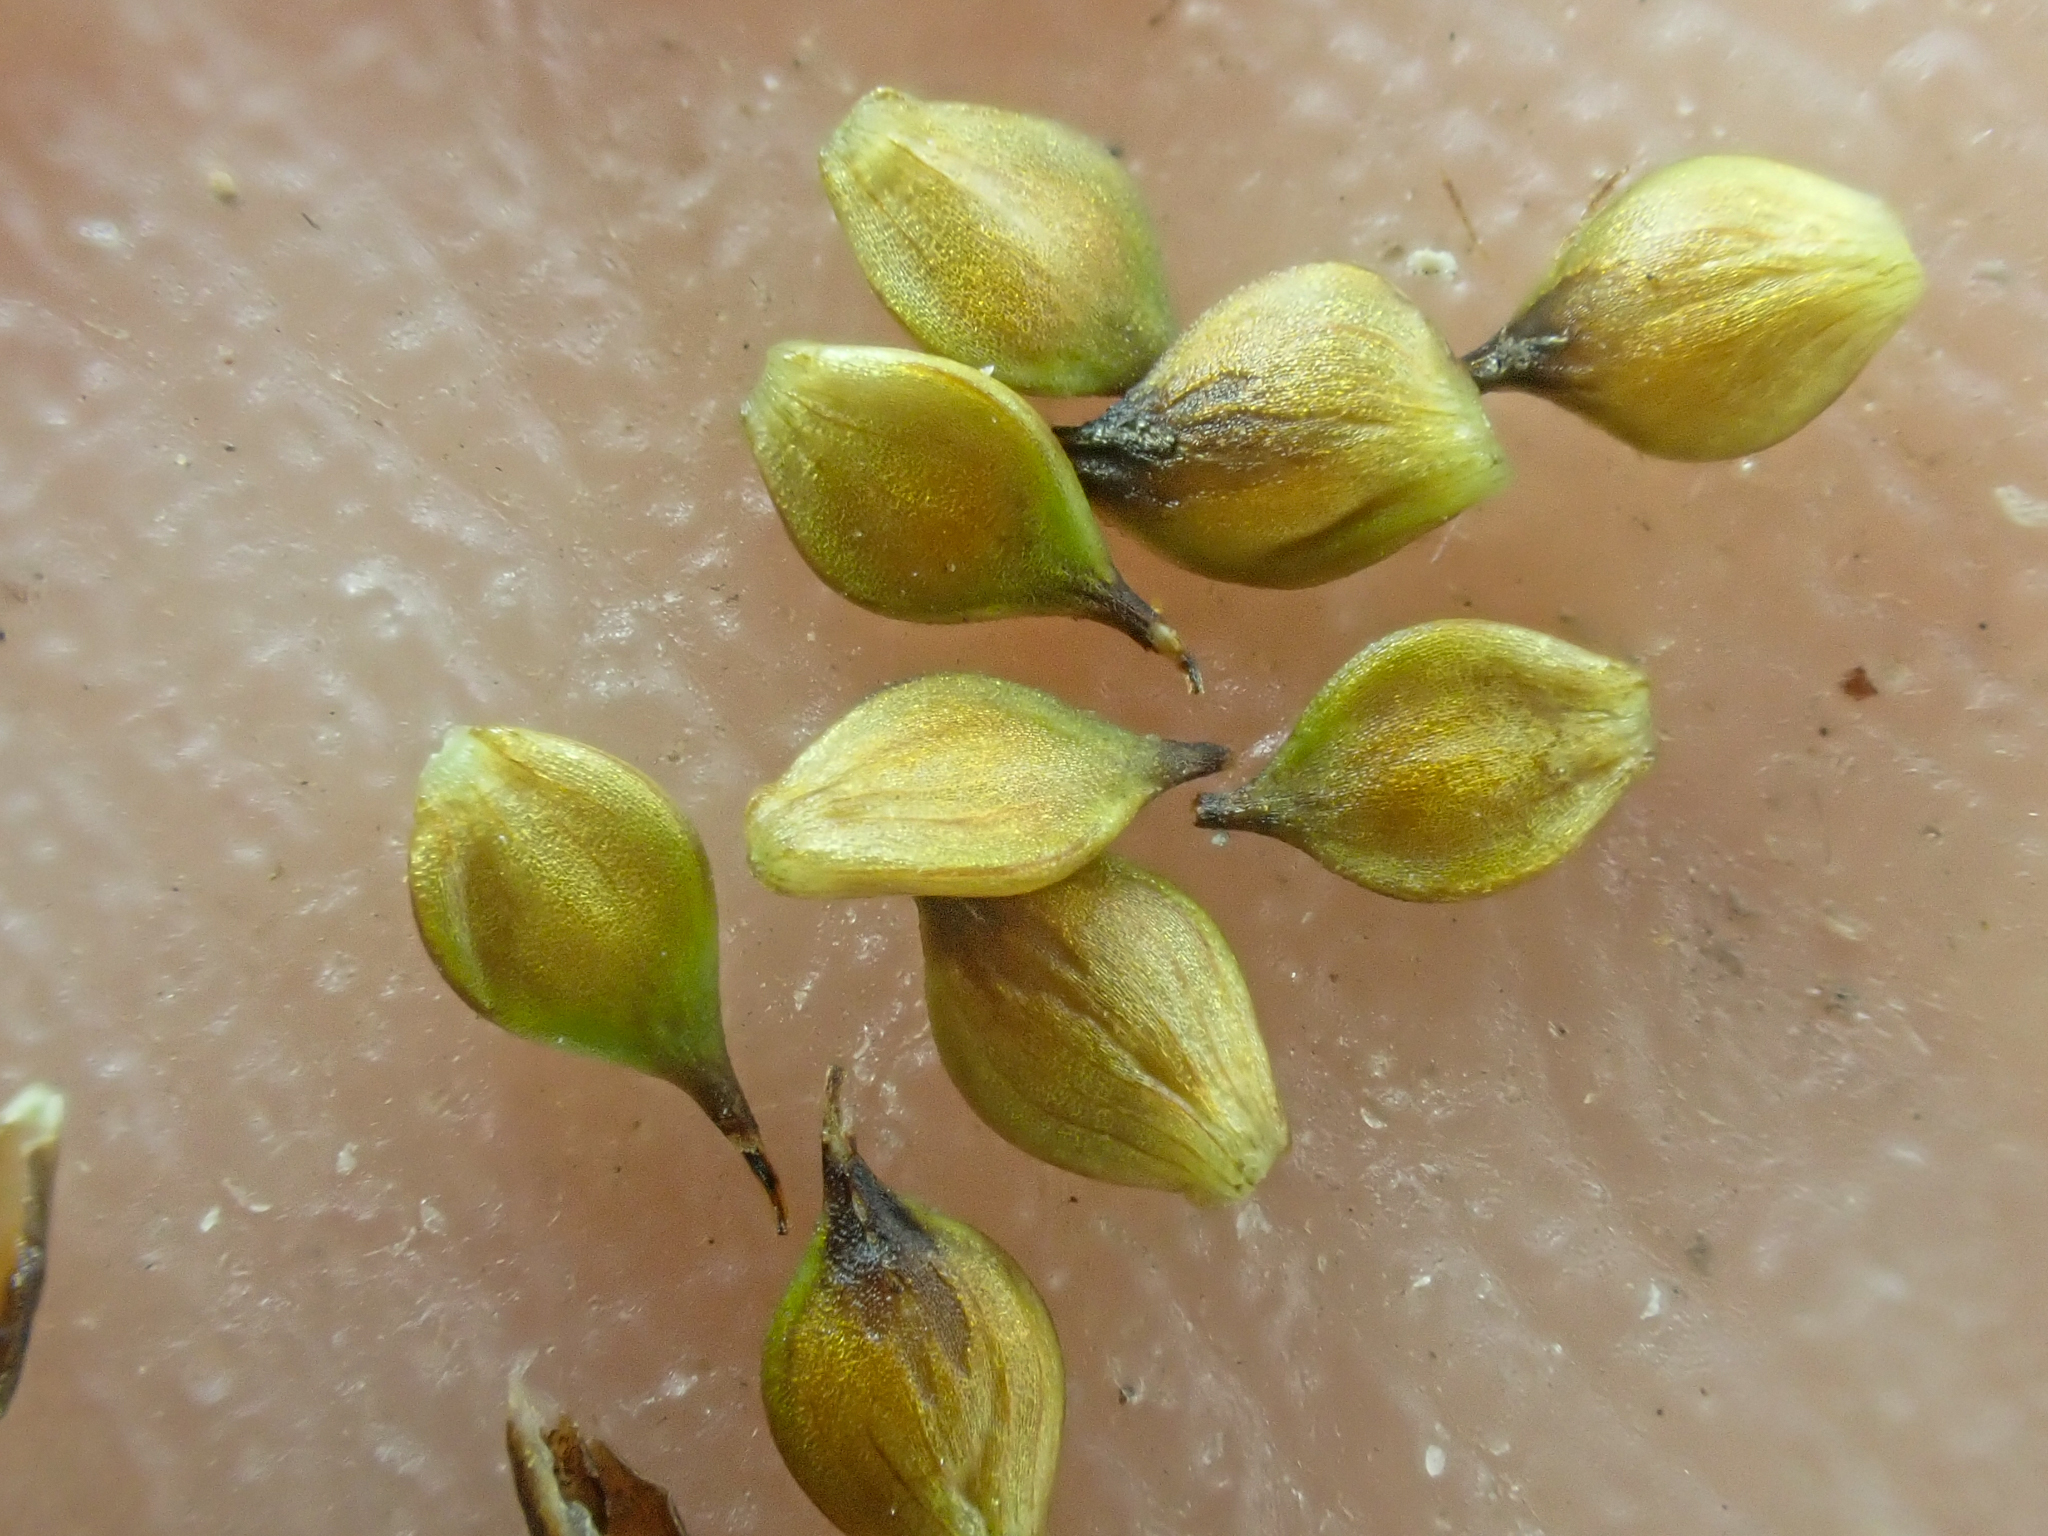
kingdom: Plantae
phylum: Tracheophyta
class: Liliopsida
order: Poales
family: Cyperaceae
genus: Carex
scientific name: Carex lachenalii
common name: Hare's-foot sedge
